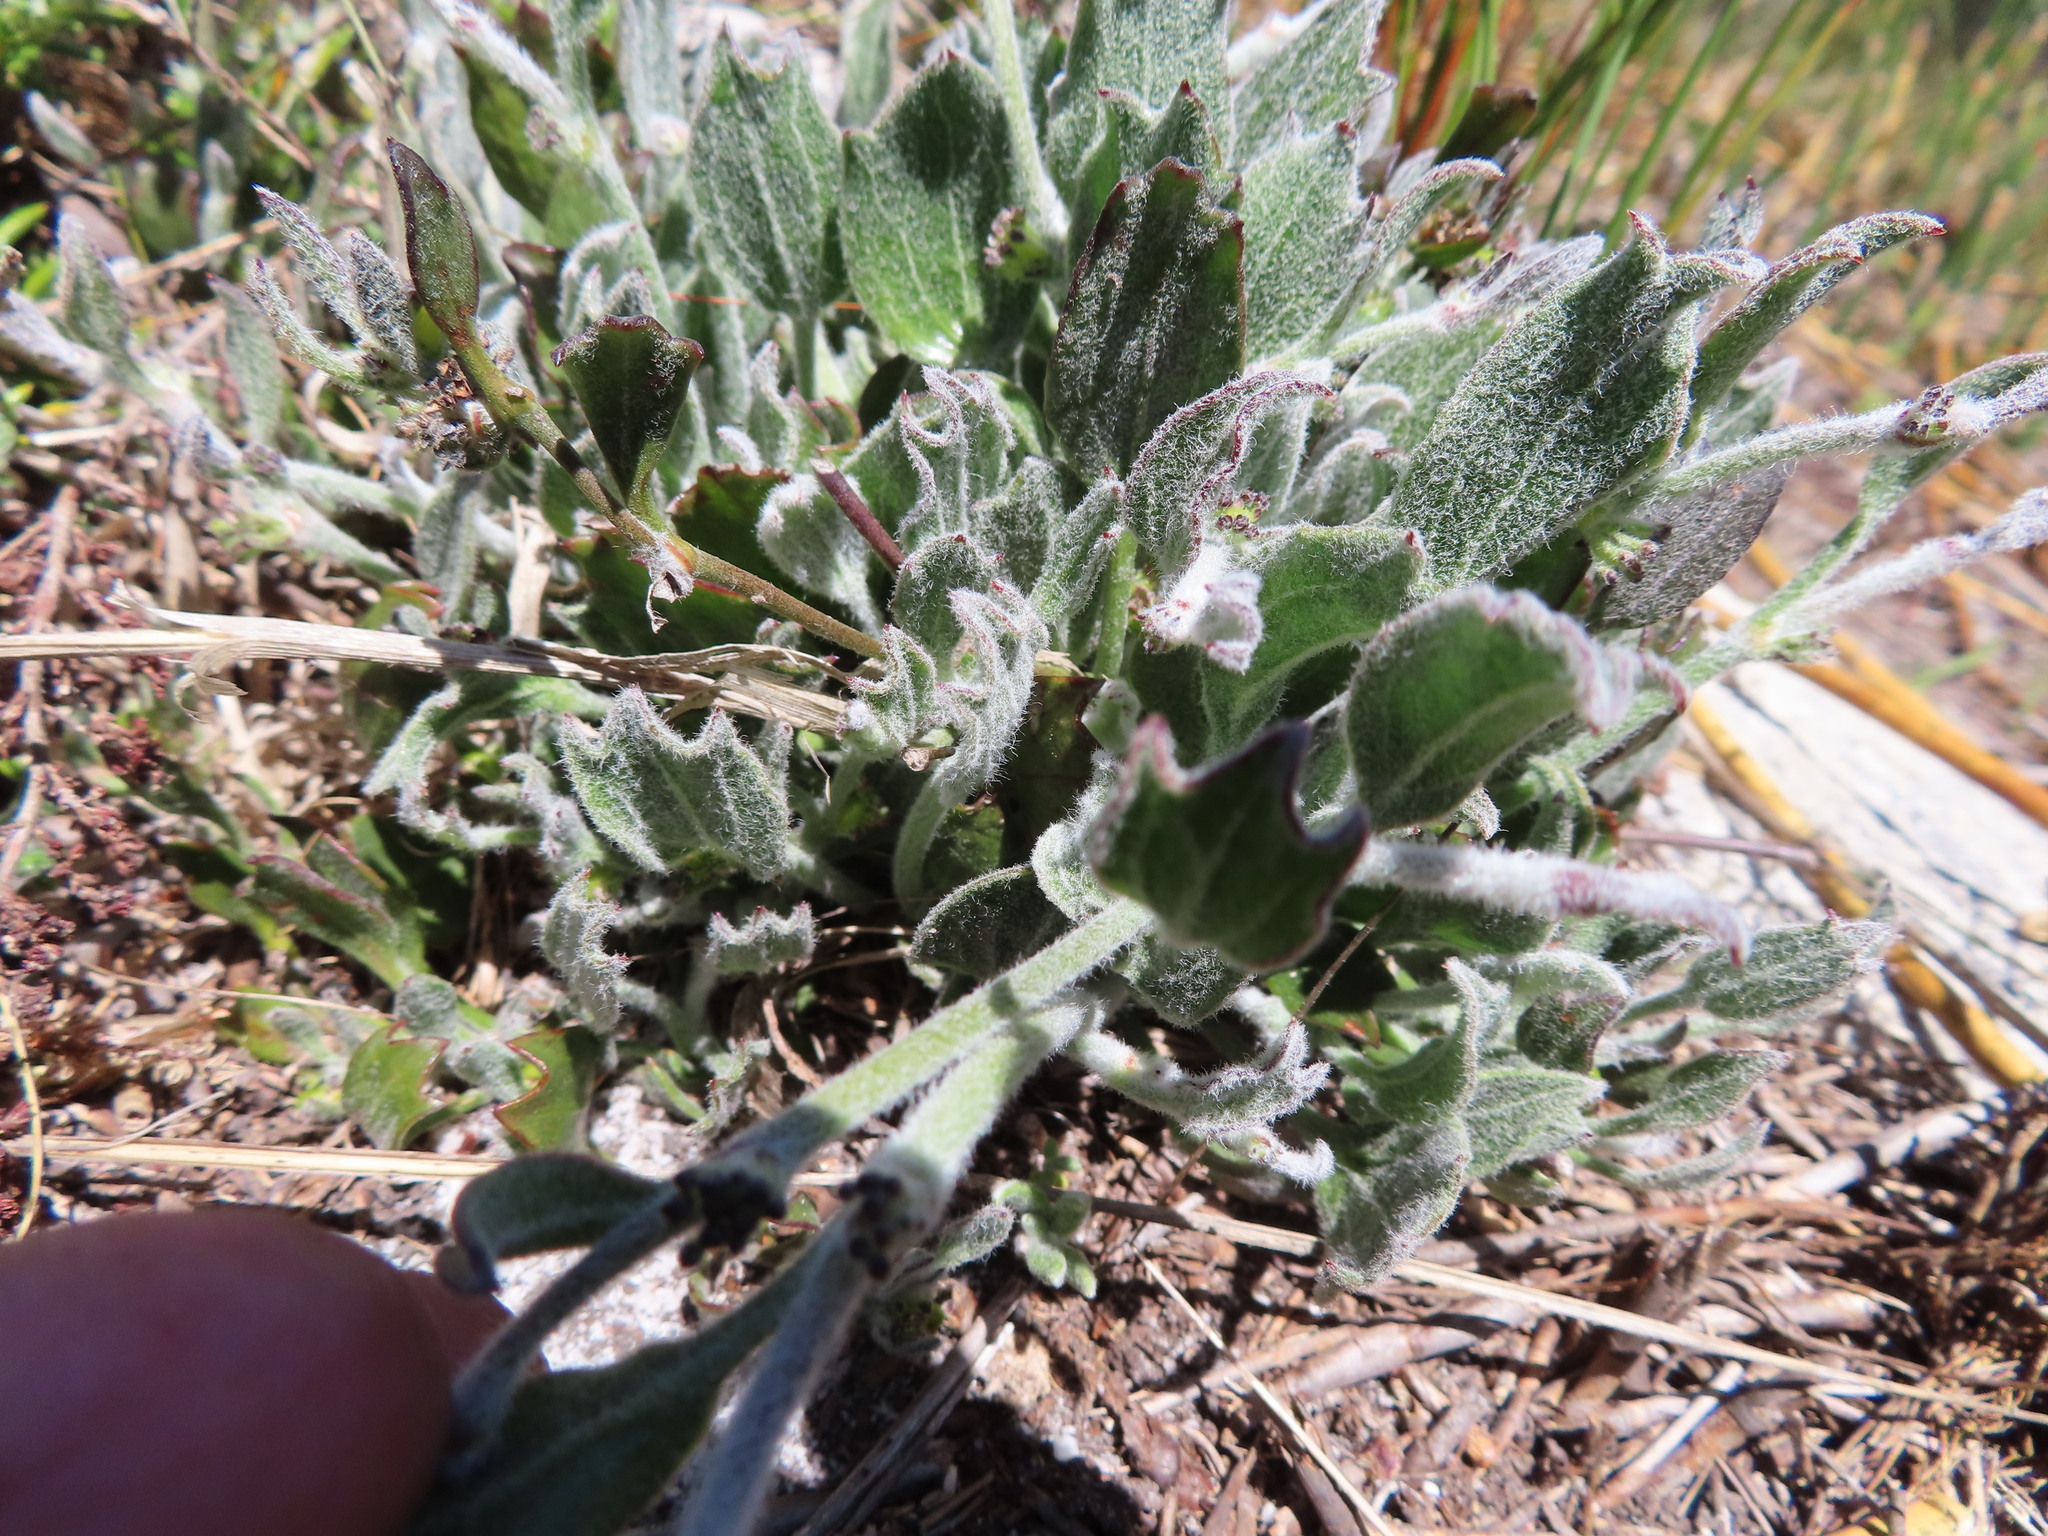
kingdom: Plantae
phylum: Tracheophyta
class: Magnoliopsida
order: Apiales
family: Apiaceae
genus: Centella
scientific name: Centella difformis
